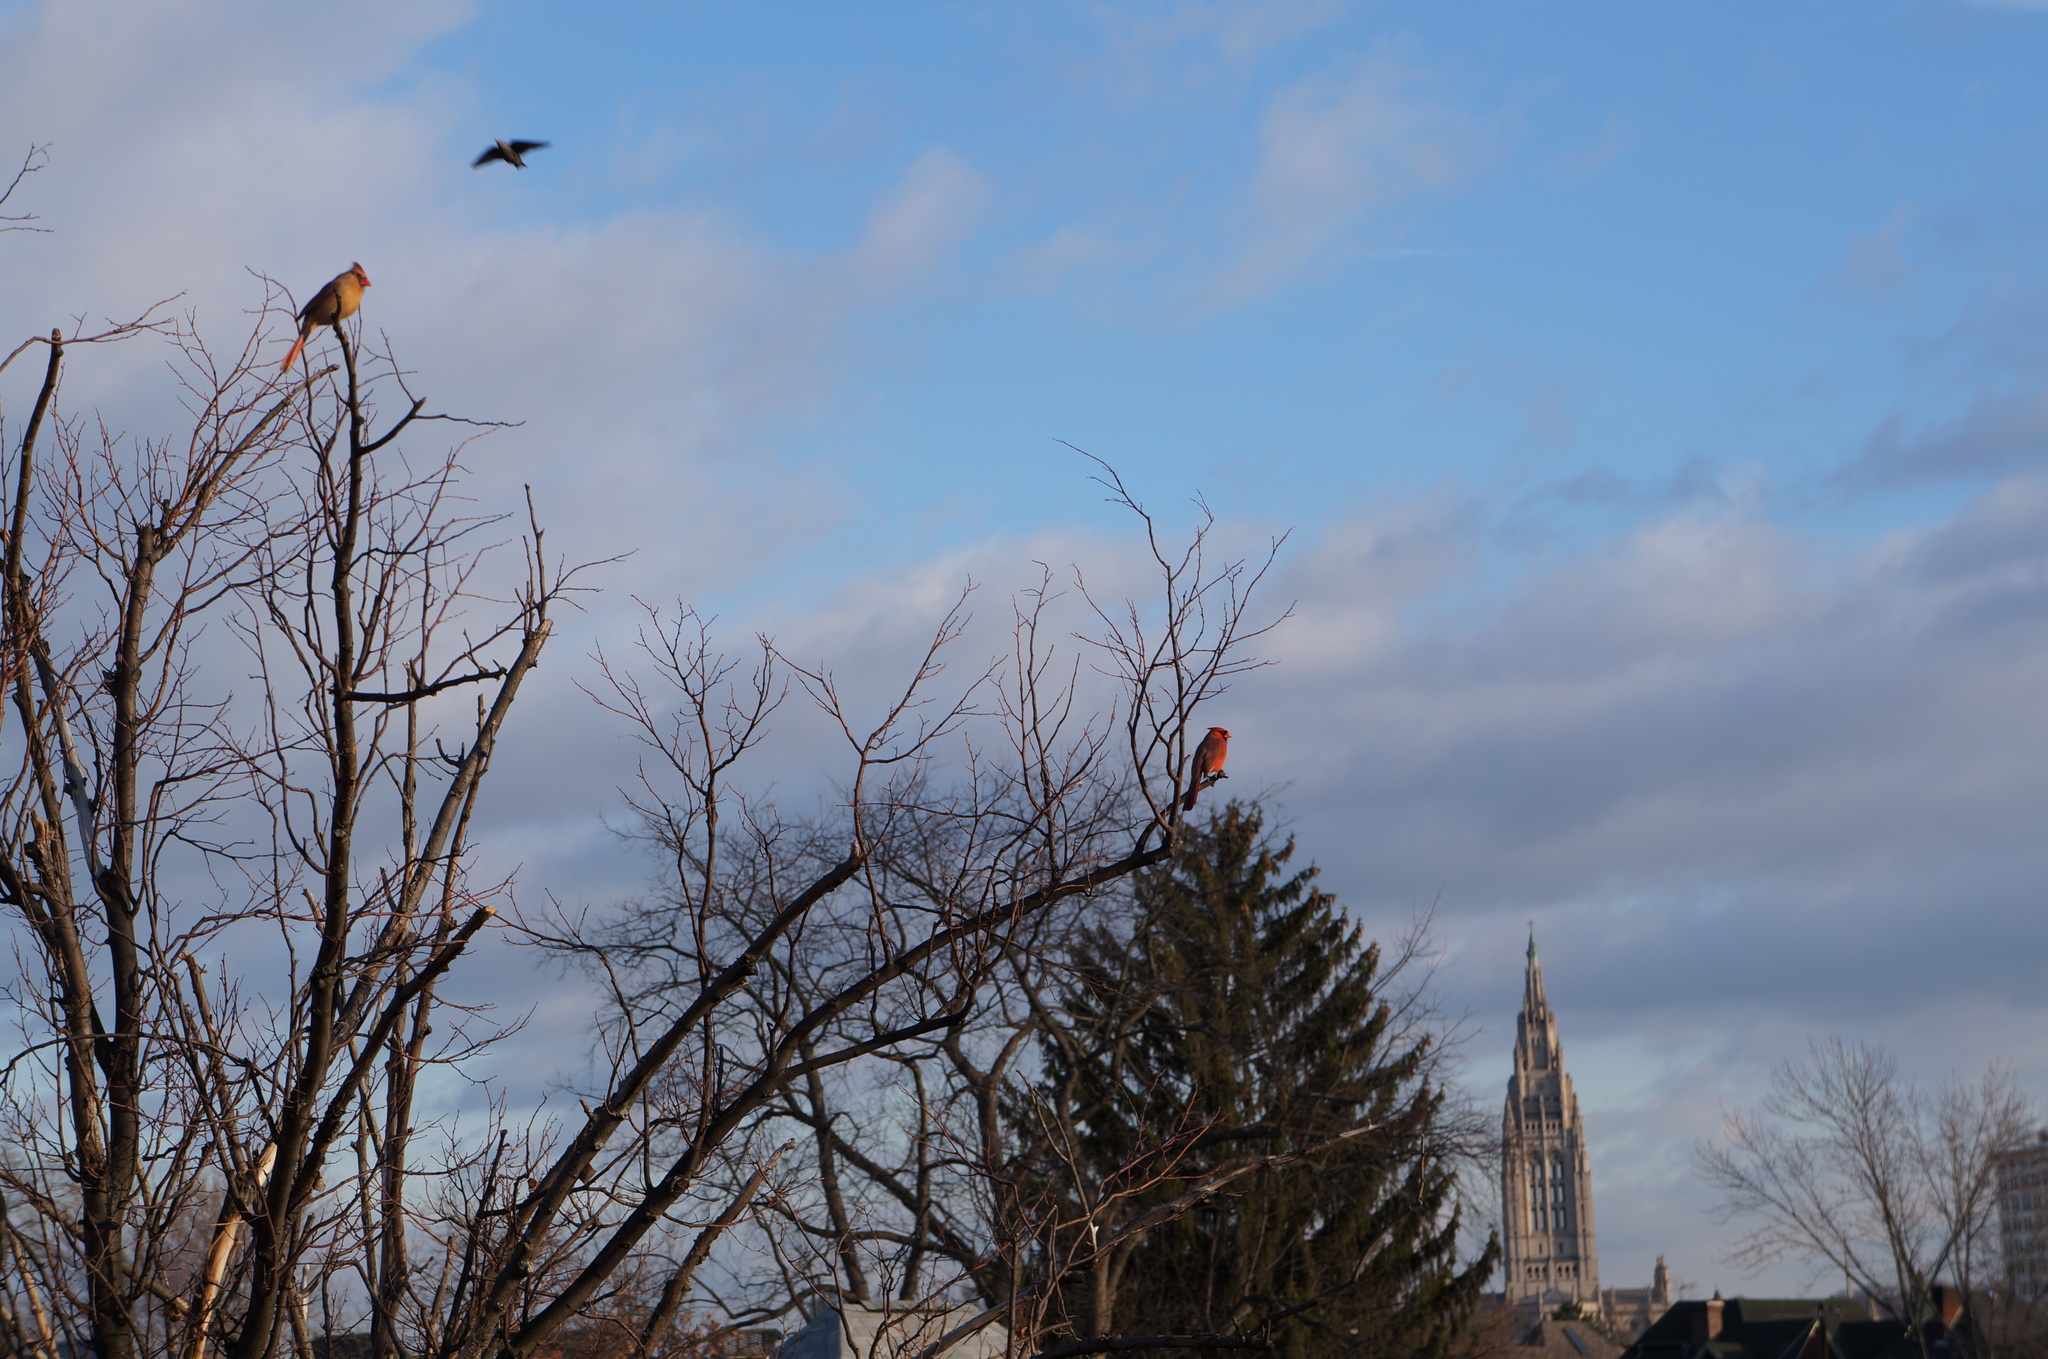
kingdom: Animalia
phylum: Chordata
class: Aves
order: Passeriformes
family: Cardinalidae
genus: Cardinalis
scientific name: Cardinalis cardinalis
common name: Northern cardinal
